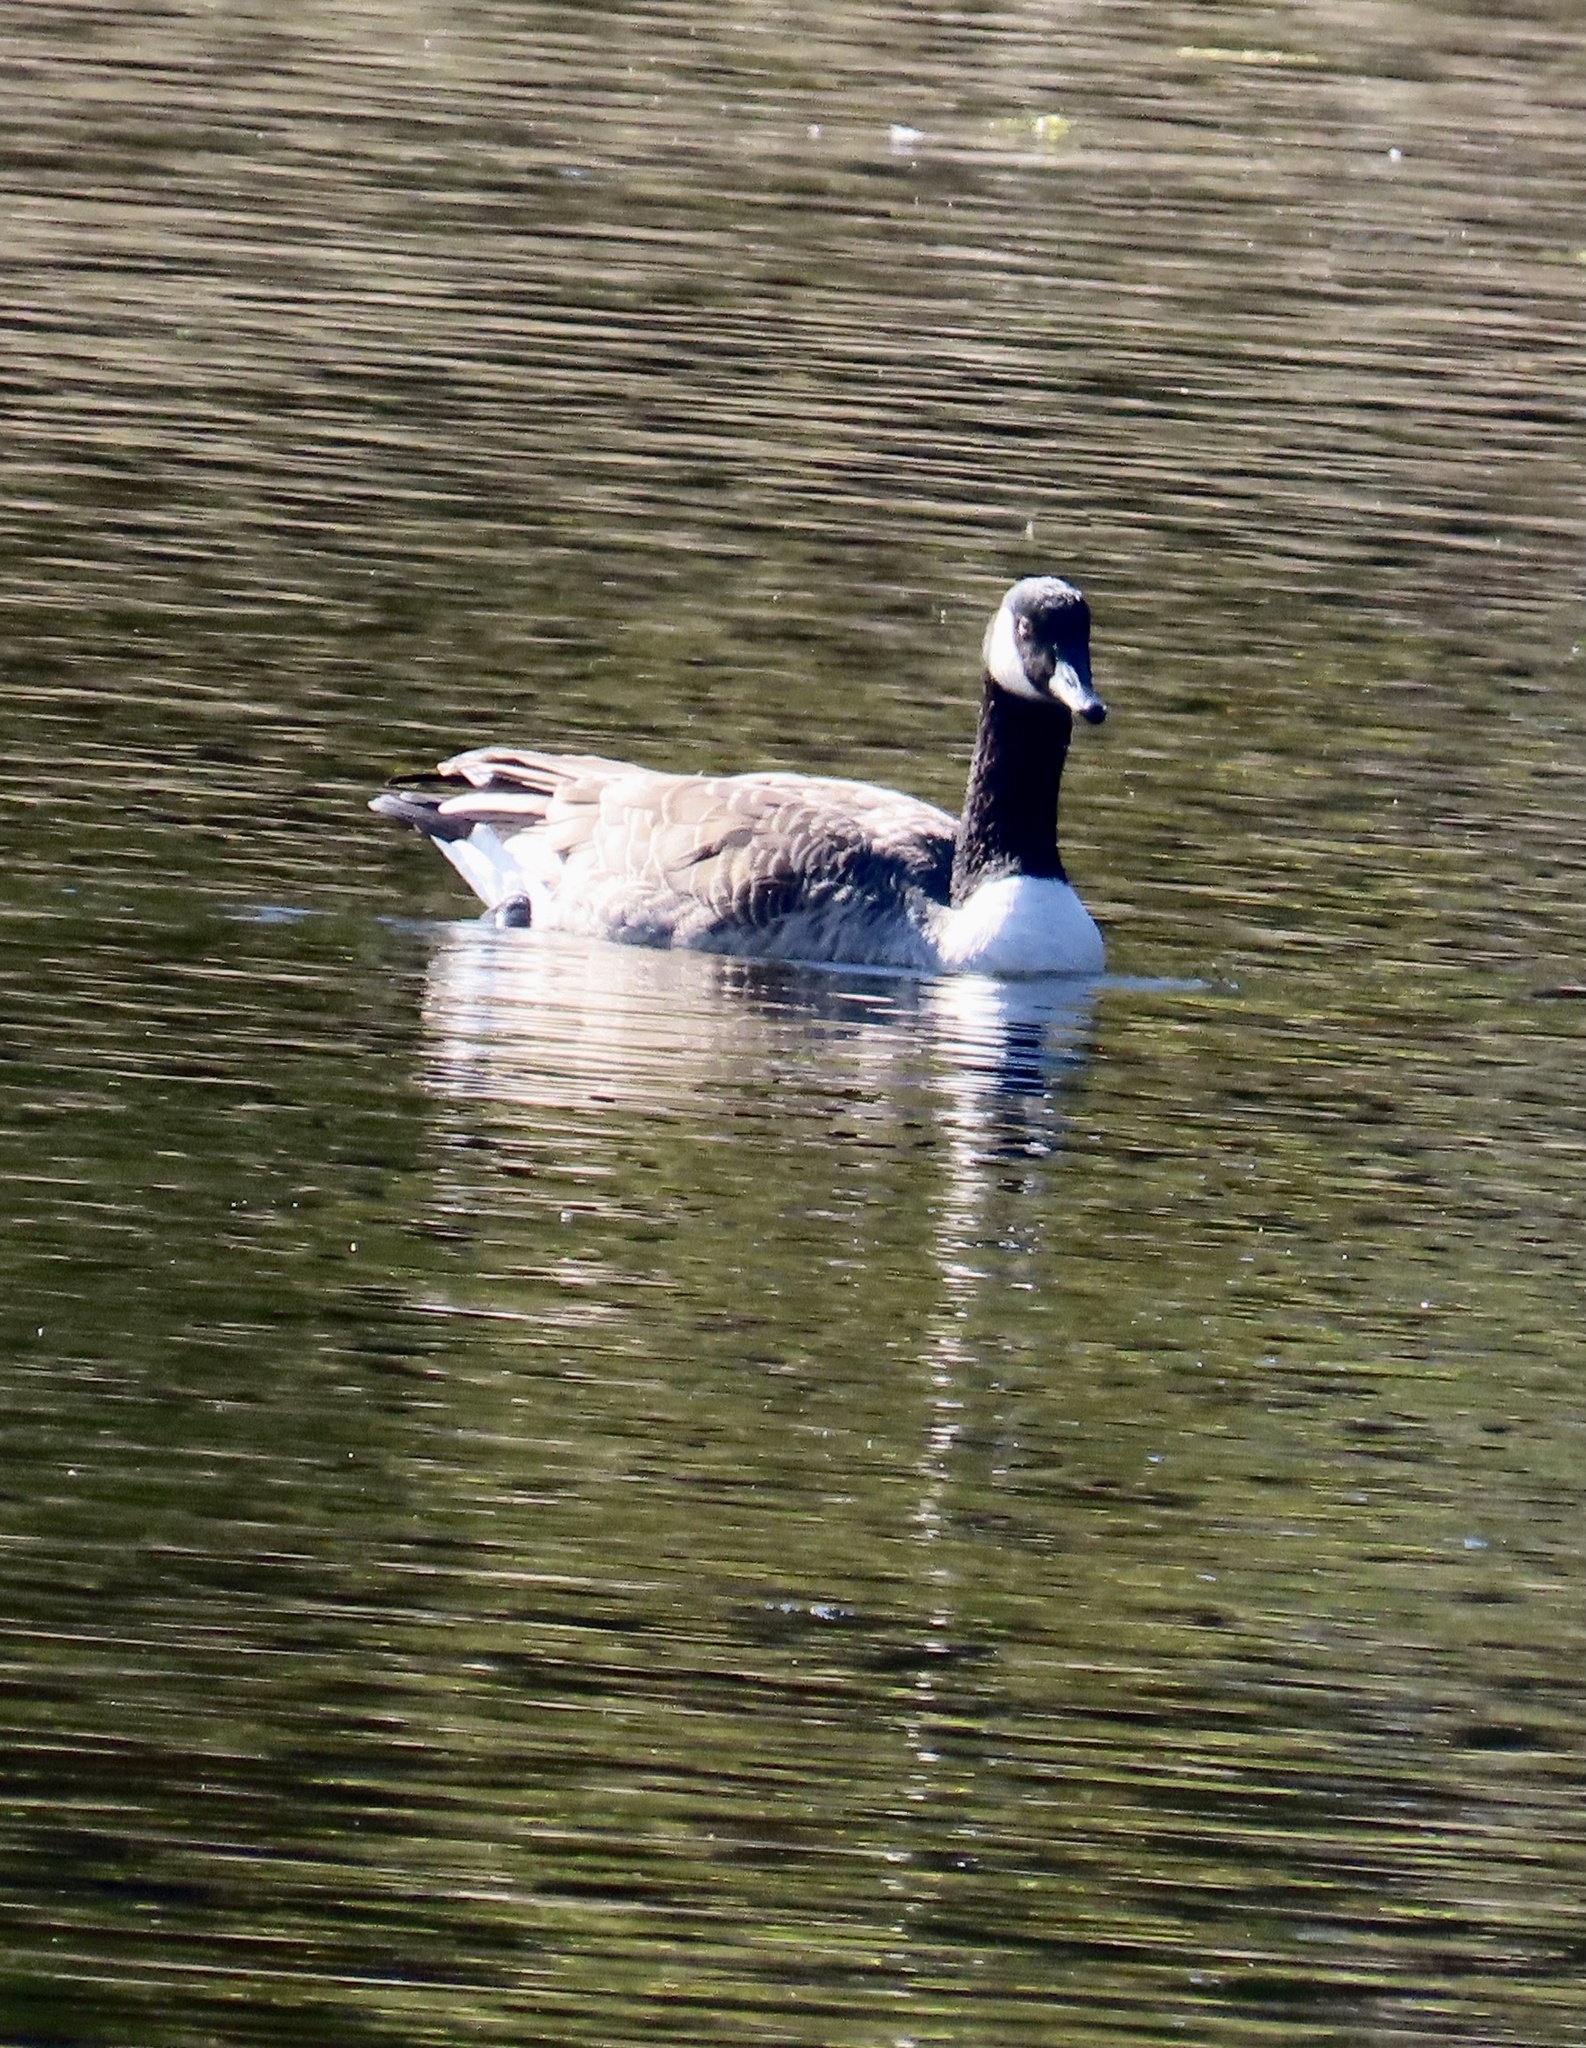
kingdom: Animalia
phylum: Chordata
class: Aves
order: Anseriformes
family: Anatidae
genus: Branta
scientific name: Branta canadensis
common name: Canada goose
